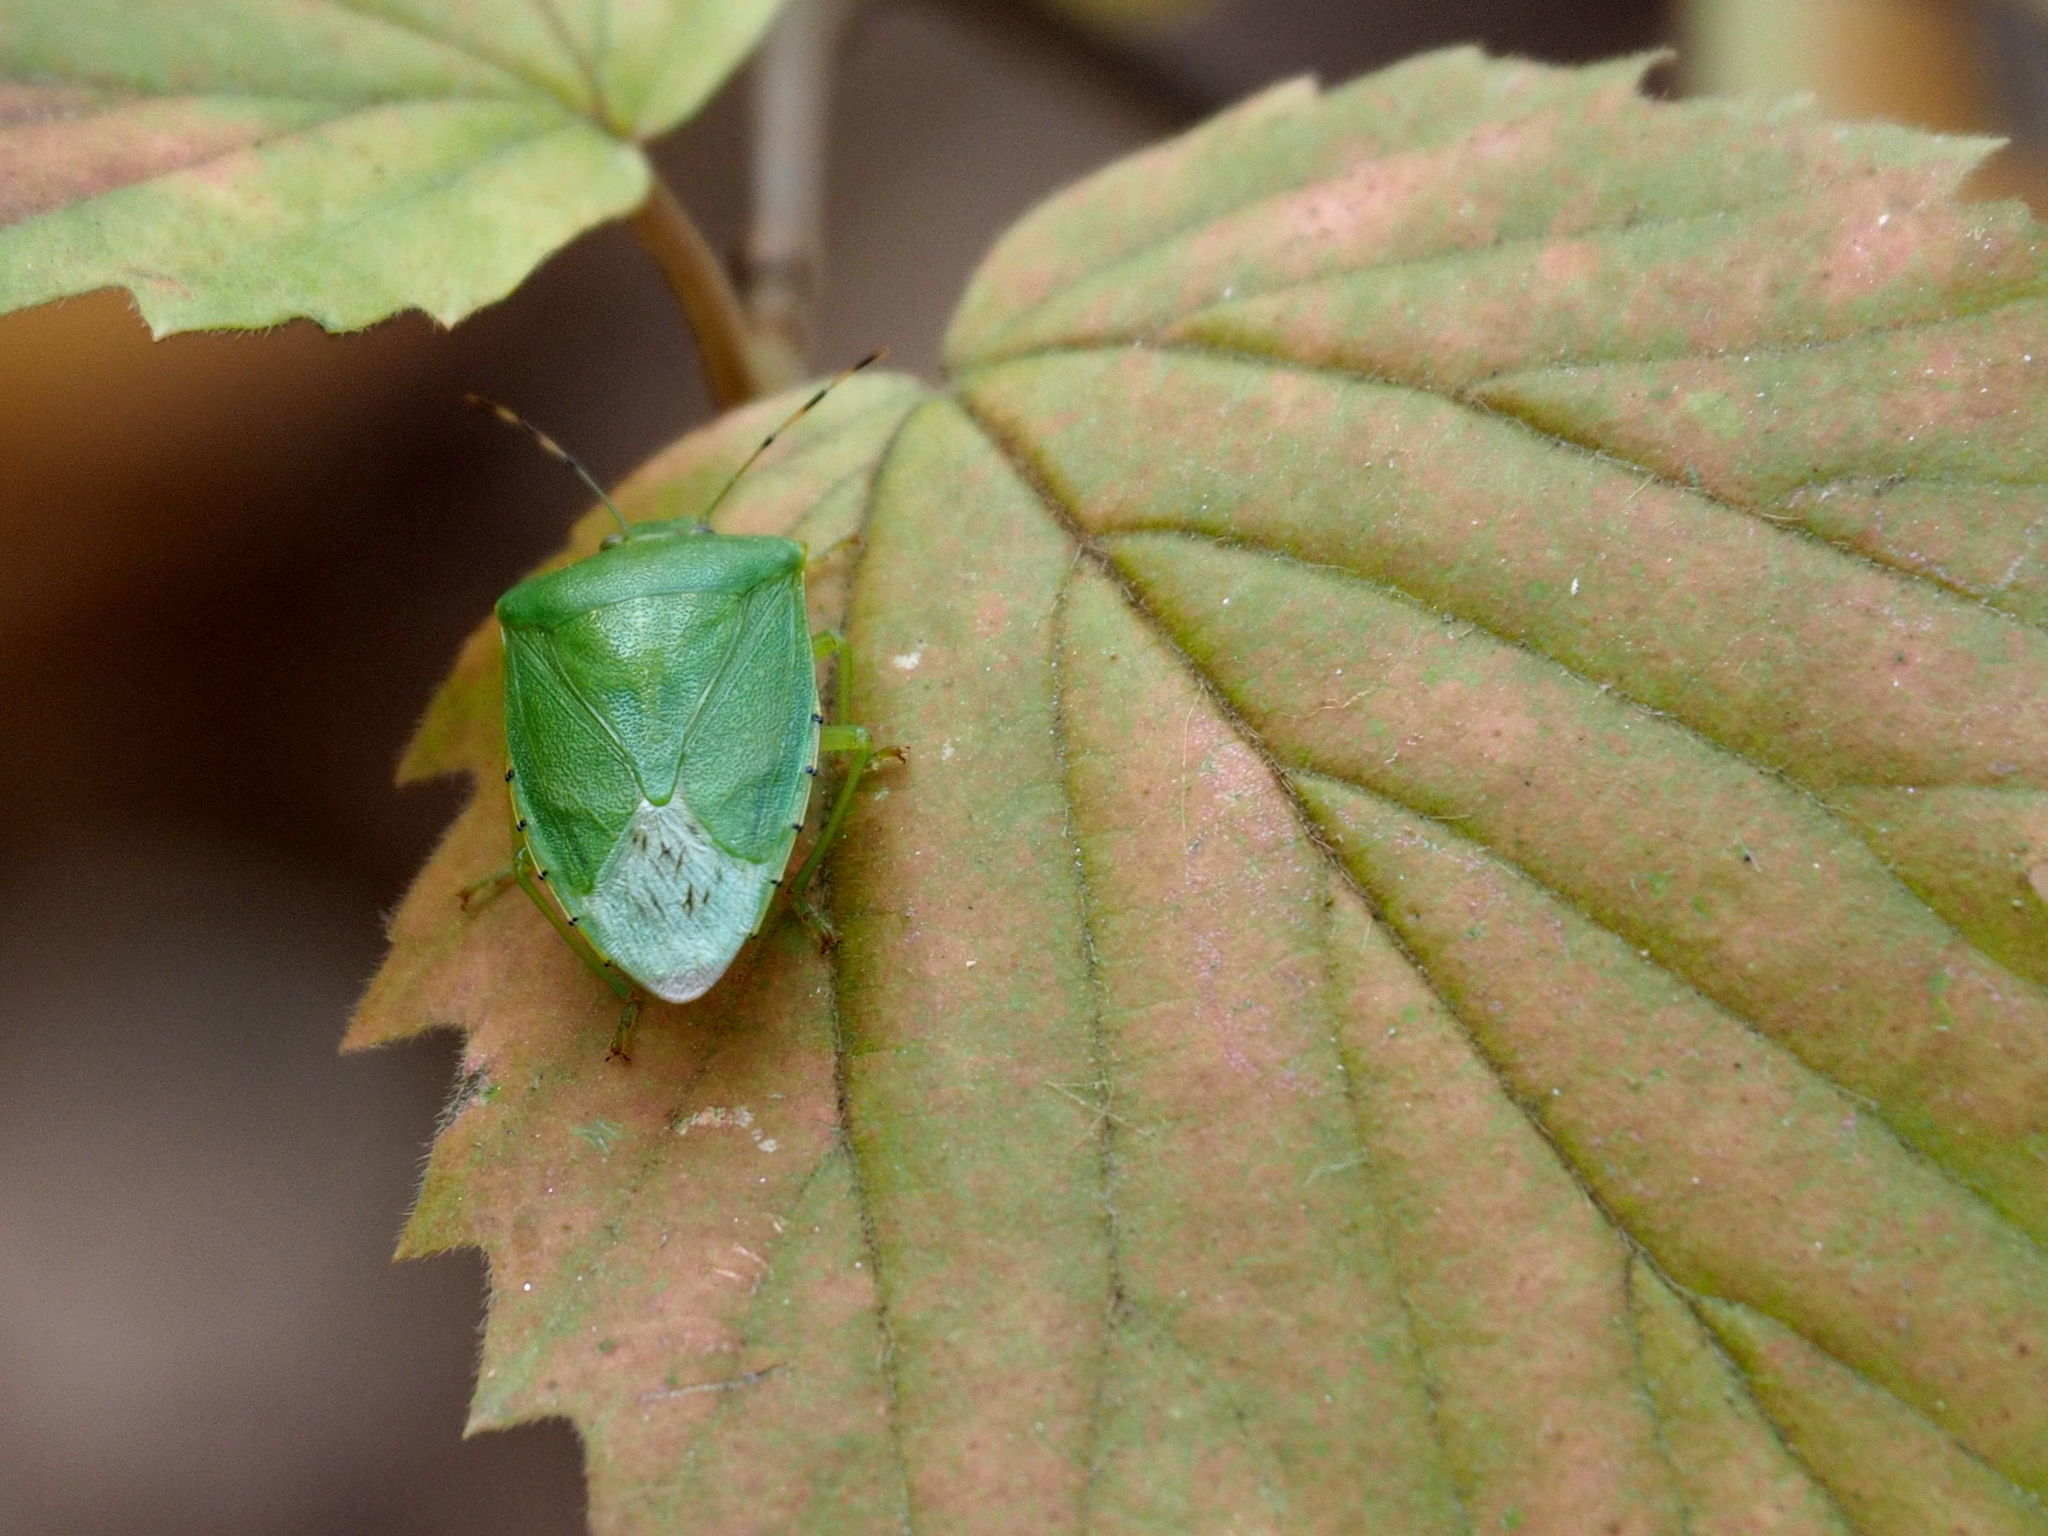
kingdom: Animalia
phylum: Arthropoda
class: Insecta
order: Hemiptera
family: Pentatomidae
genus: Chinavia
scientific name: Chinavia hilaris
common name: Green stink bug
